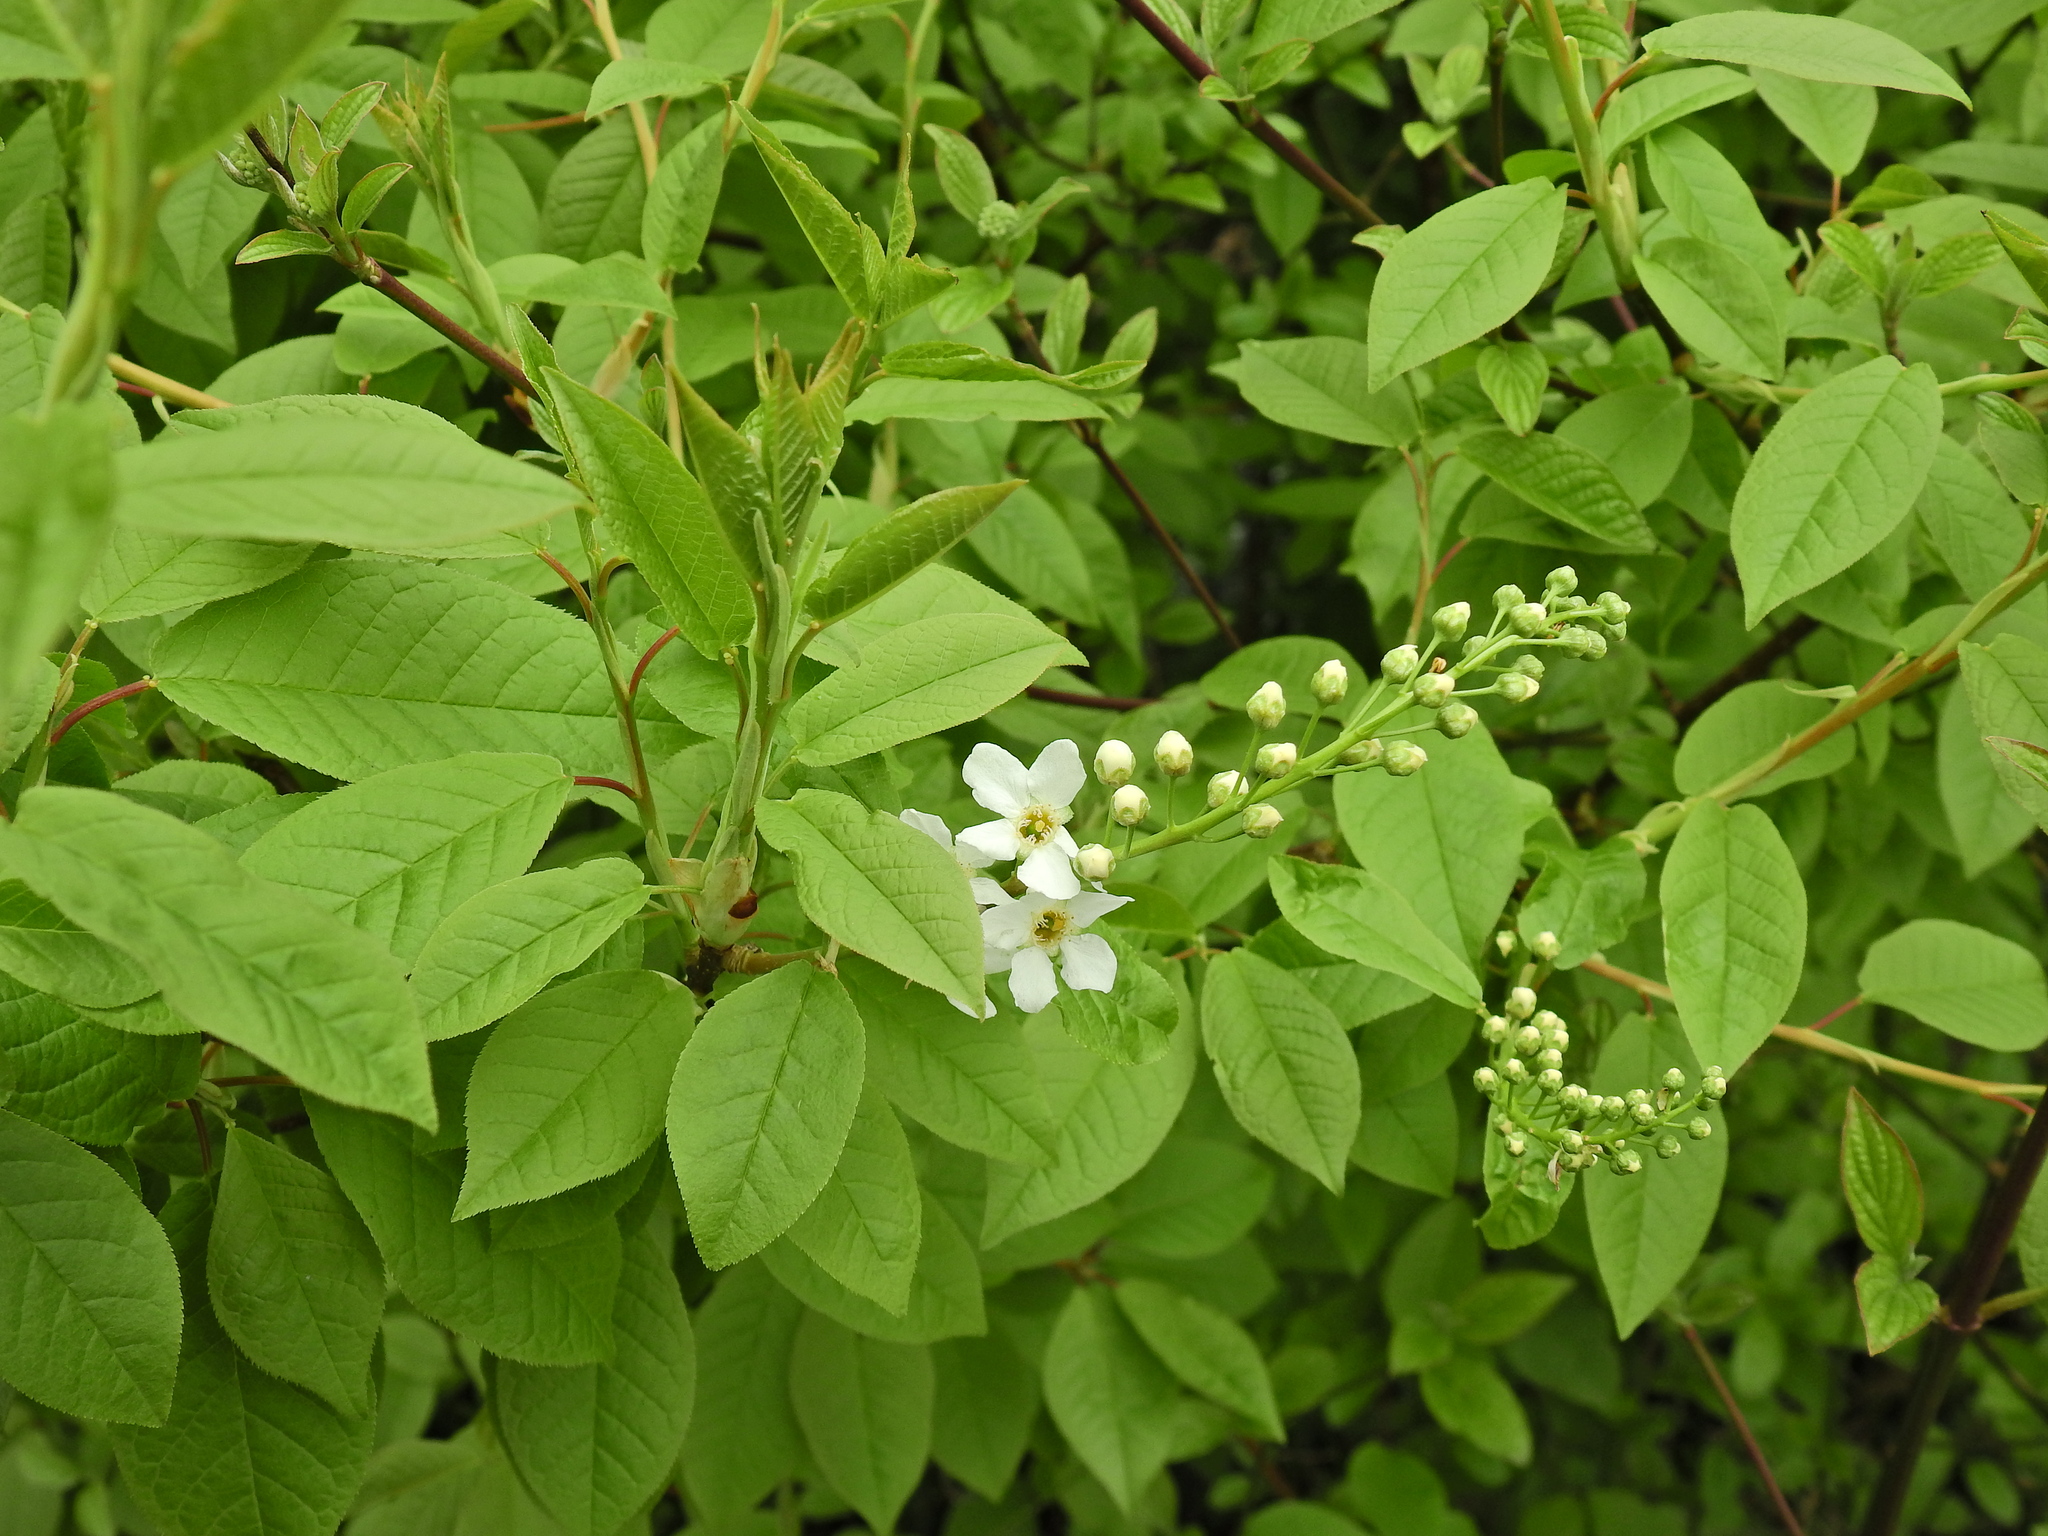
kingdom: Plantae
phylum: Tracheophyta
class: Magnoliopsida
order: Rosales
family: Rosaceae
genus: Prunus
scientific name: Prunus padus
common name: Bird cherry
